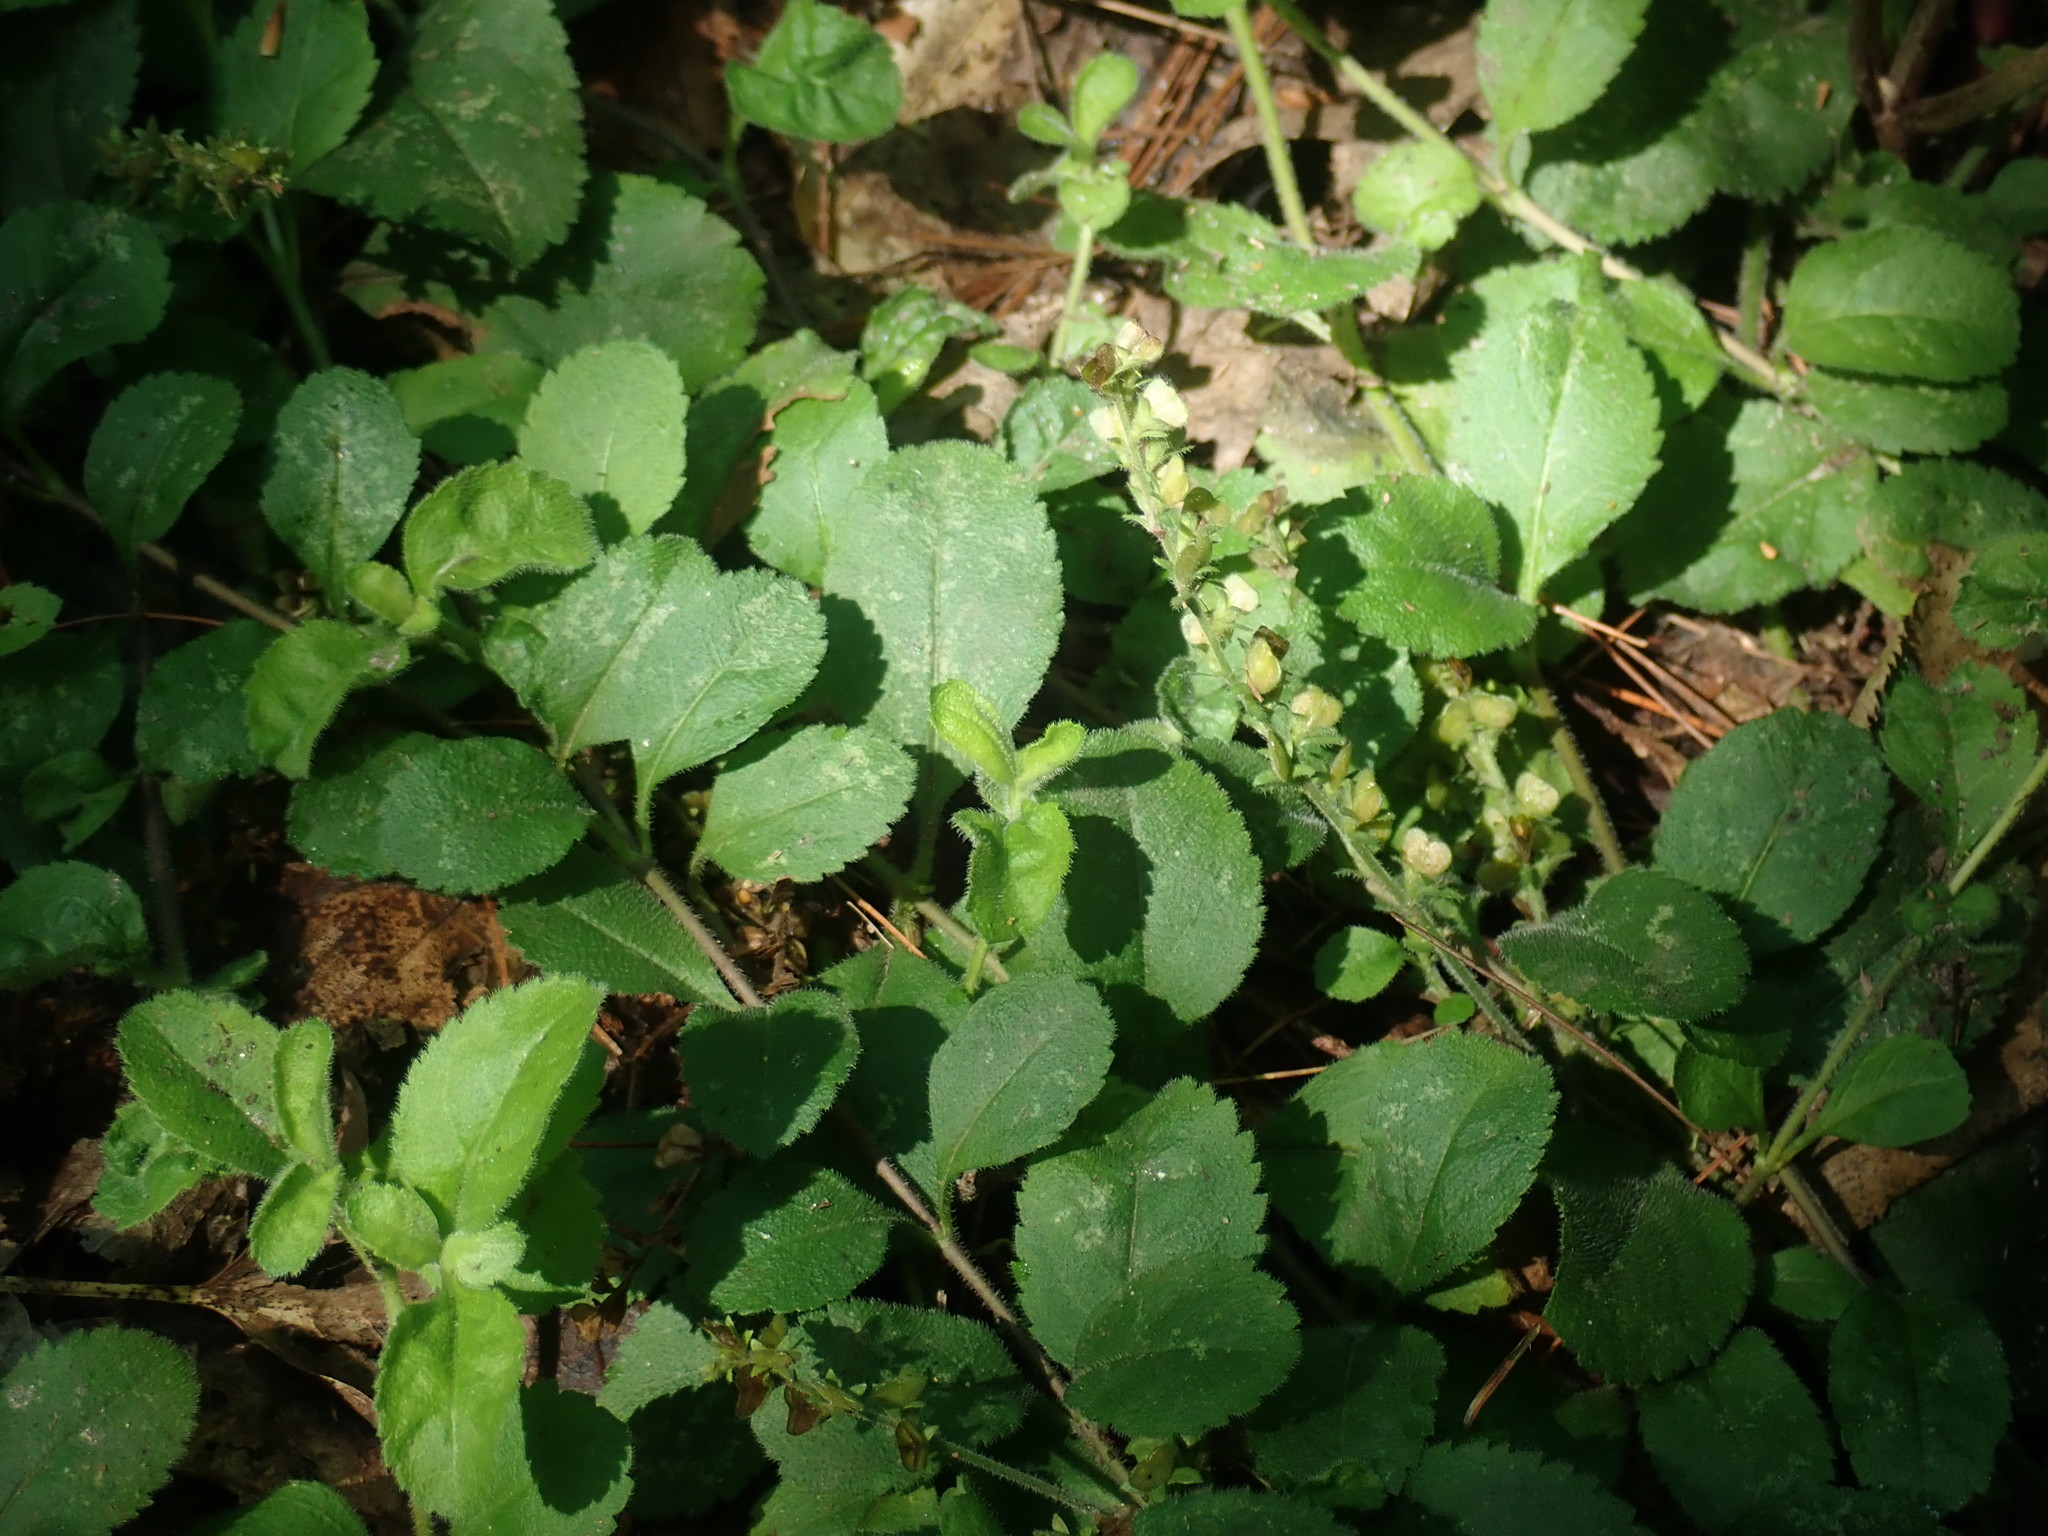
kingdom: Plantae
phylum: Tracheophyta
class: Magnoliopsida
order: Lamiales
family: Plantaginaceae
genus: Veronica
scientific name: Veronica officinalis
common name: Common speedwell
